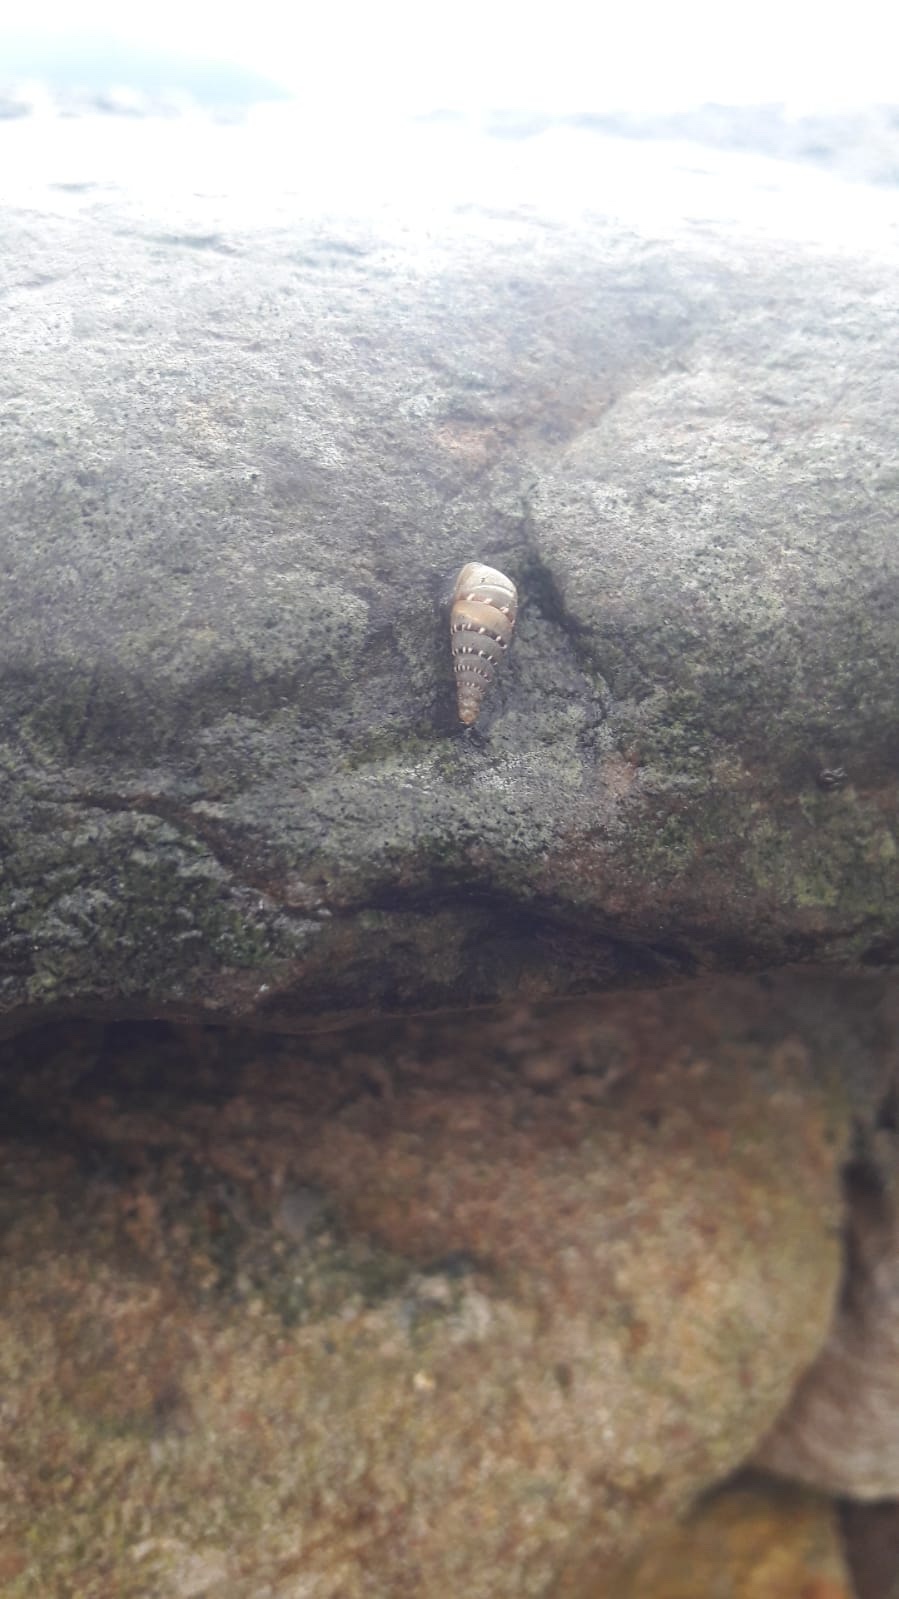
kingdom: Animalia
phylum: Mollusca
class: Gastropoda
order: Stylommatophora
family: Clausiliidae
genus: Papillifera
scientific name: Papillifera papillaris
